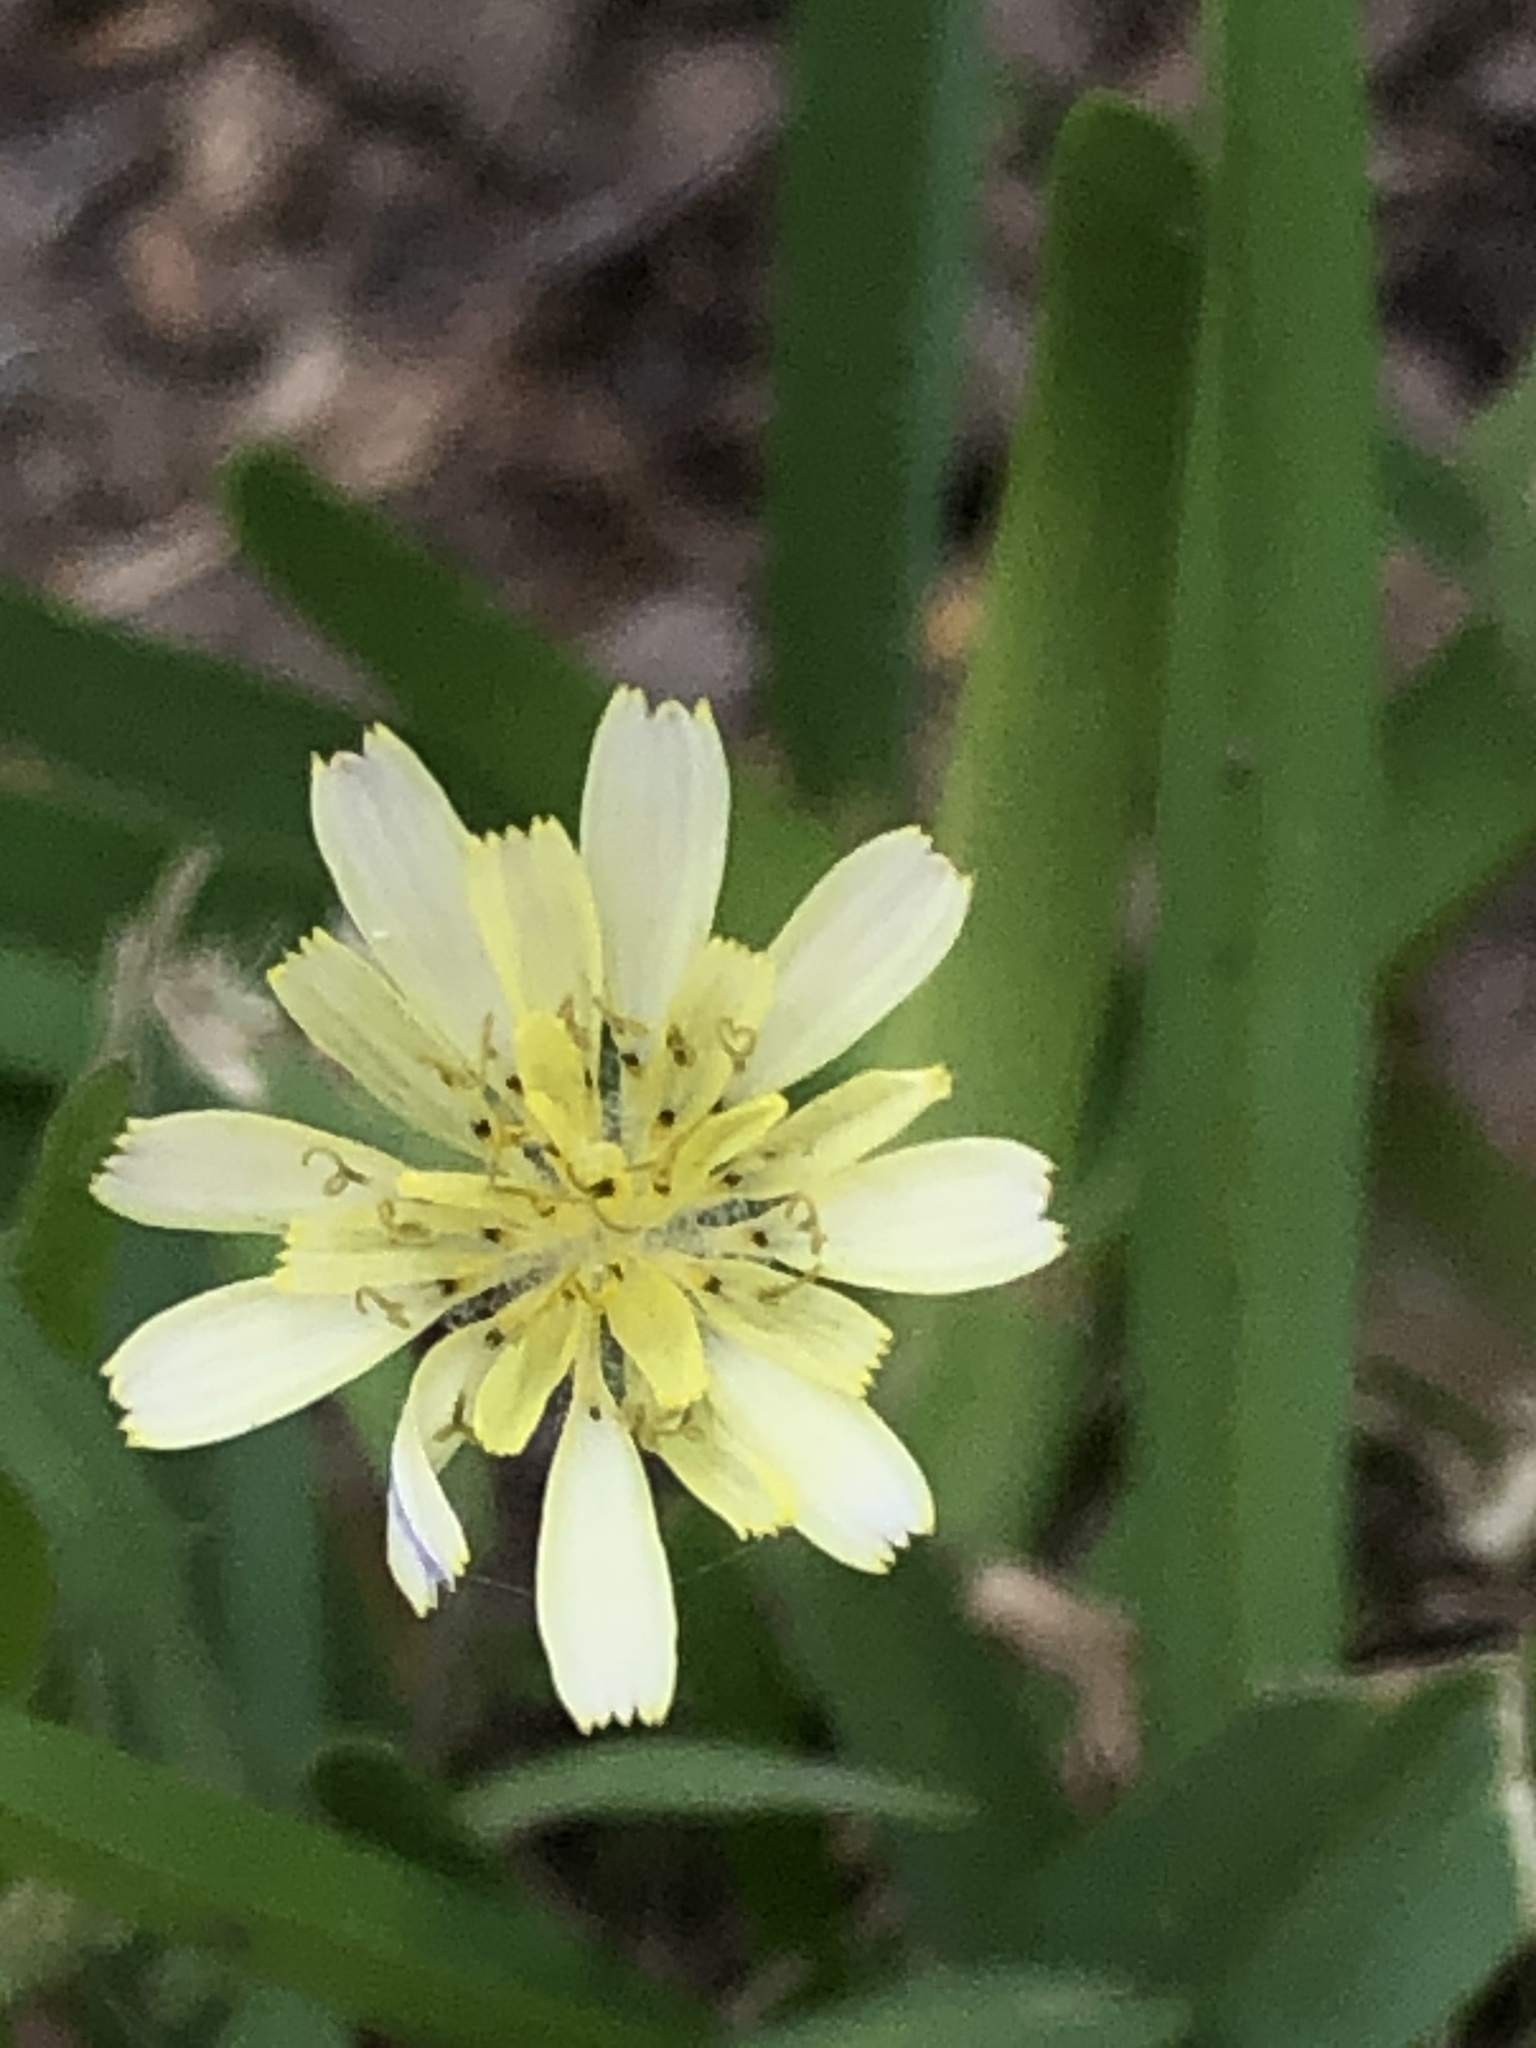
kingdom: Plantae
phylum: Tracheophyta
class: Magnoliopsida
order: Asterales
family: Asteraceae
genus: Lactuca
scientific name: Lactuca virosa
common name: Great lettuce
